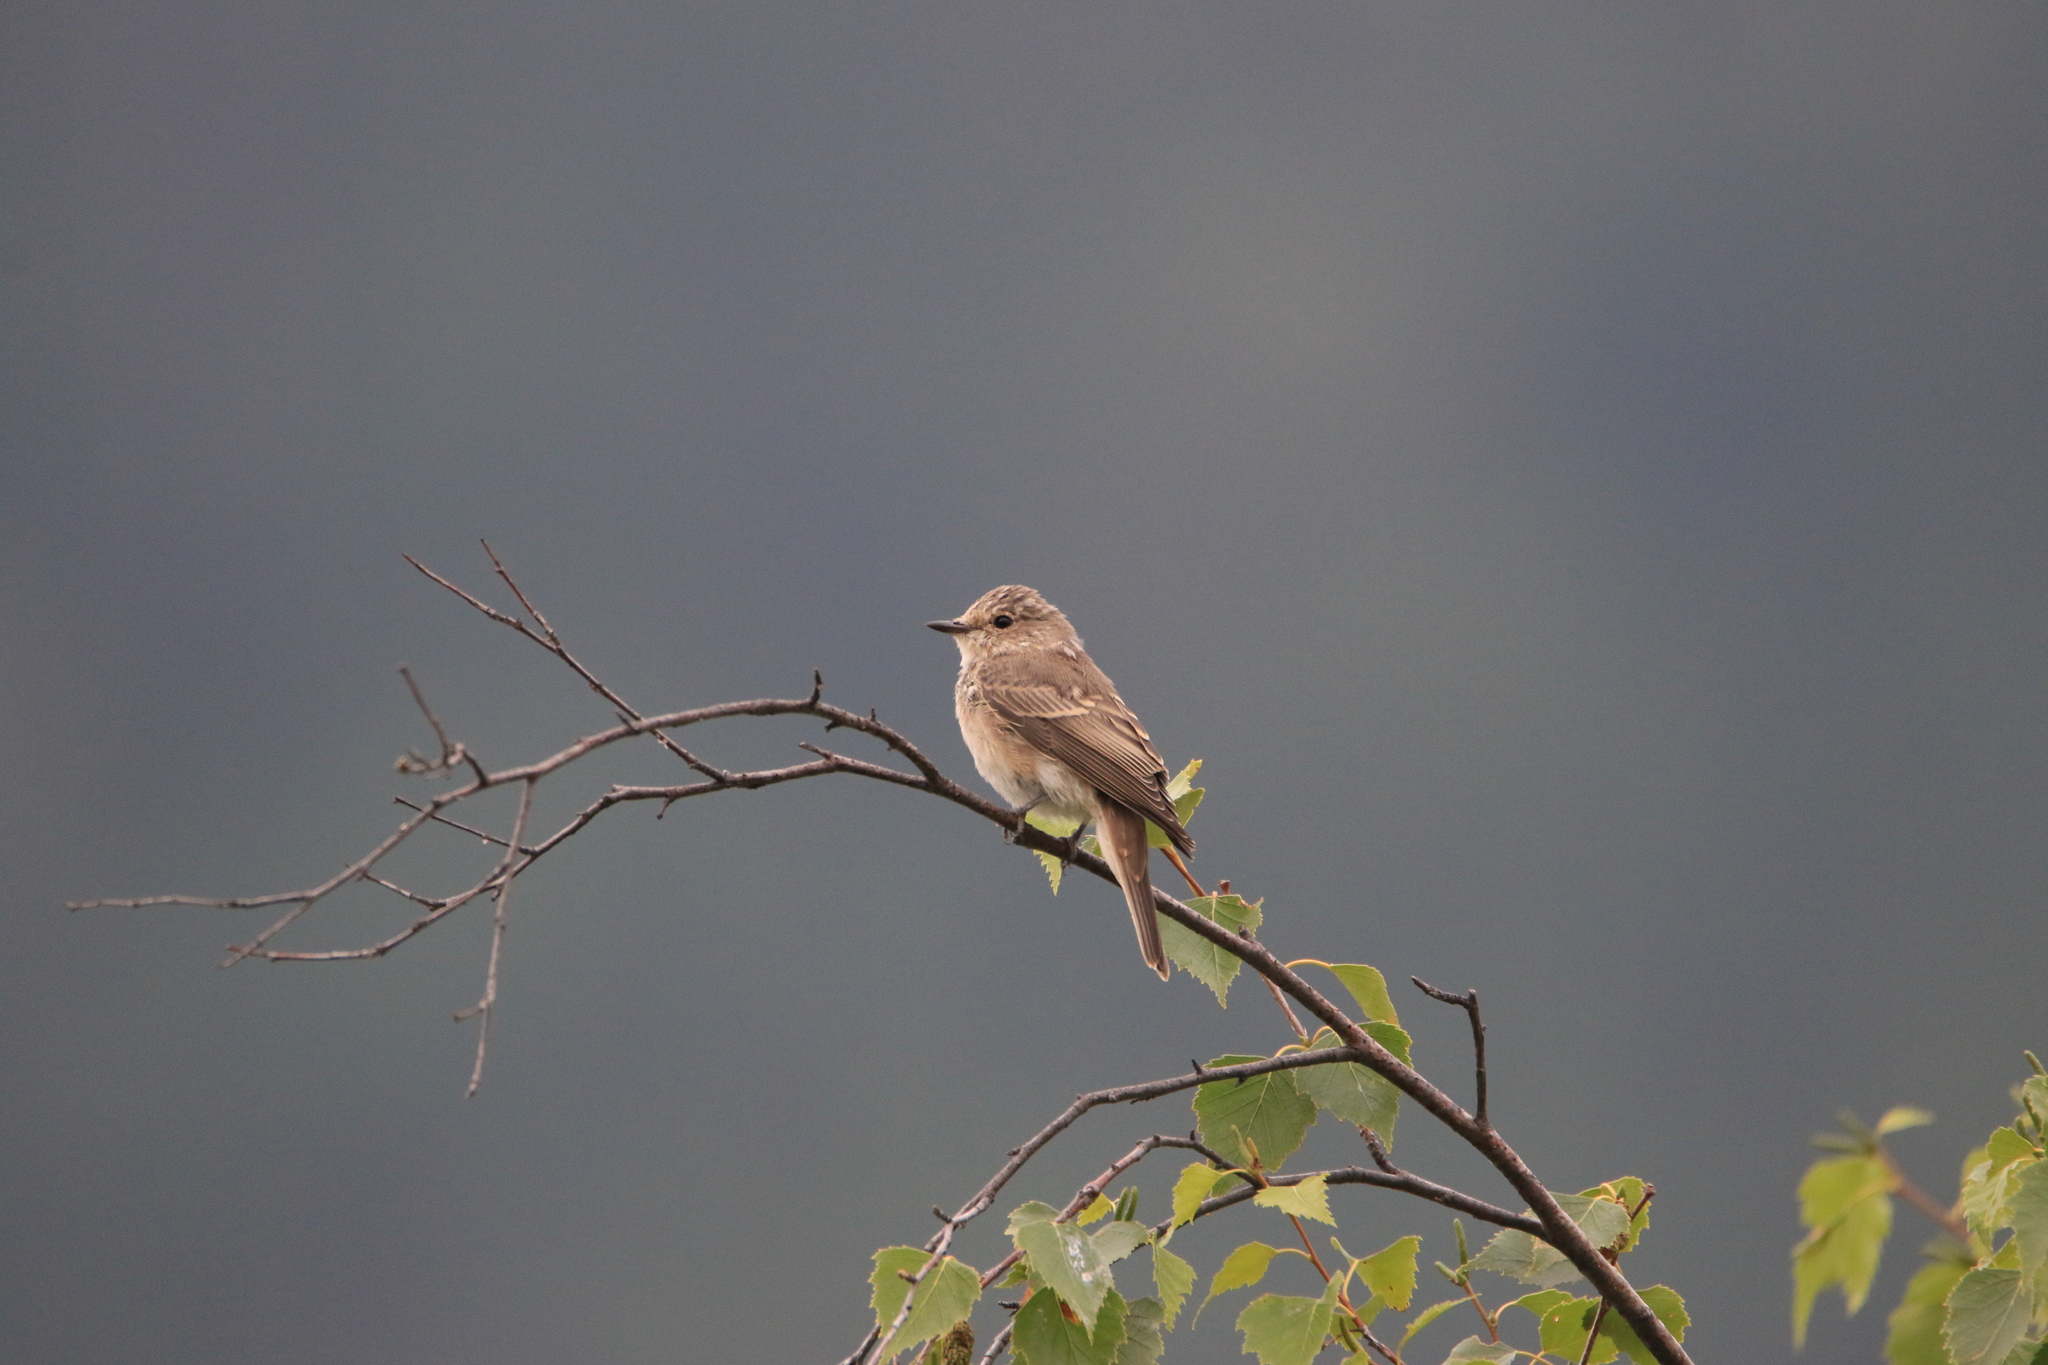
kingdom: Animalia
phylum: Chordata
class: Aves
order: Passeriformes
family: Muscicapidae
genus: Muscicapa
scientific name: Muscicapa striata
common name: Spotted flycatcher
